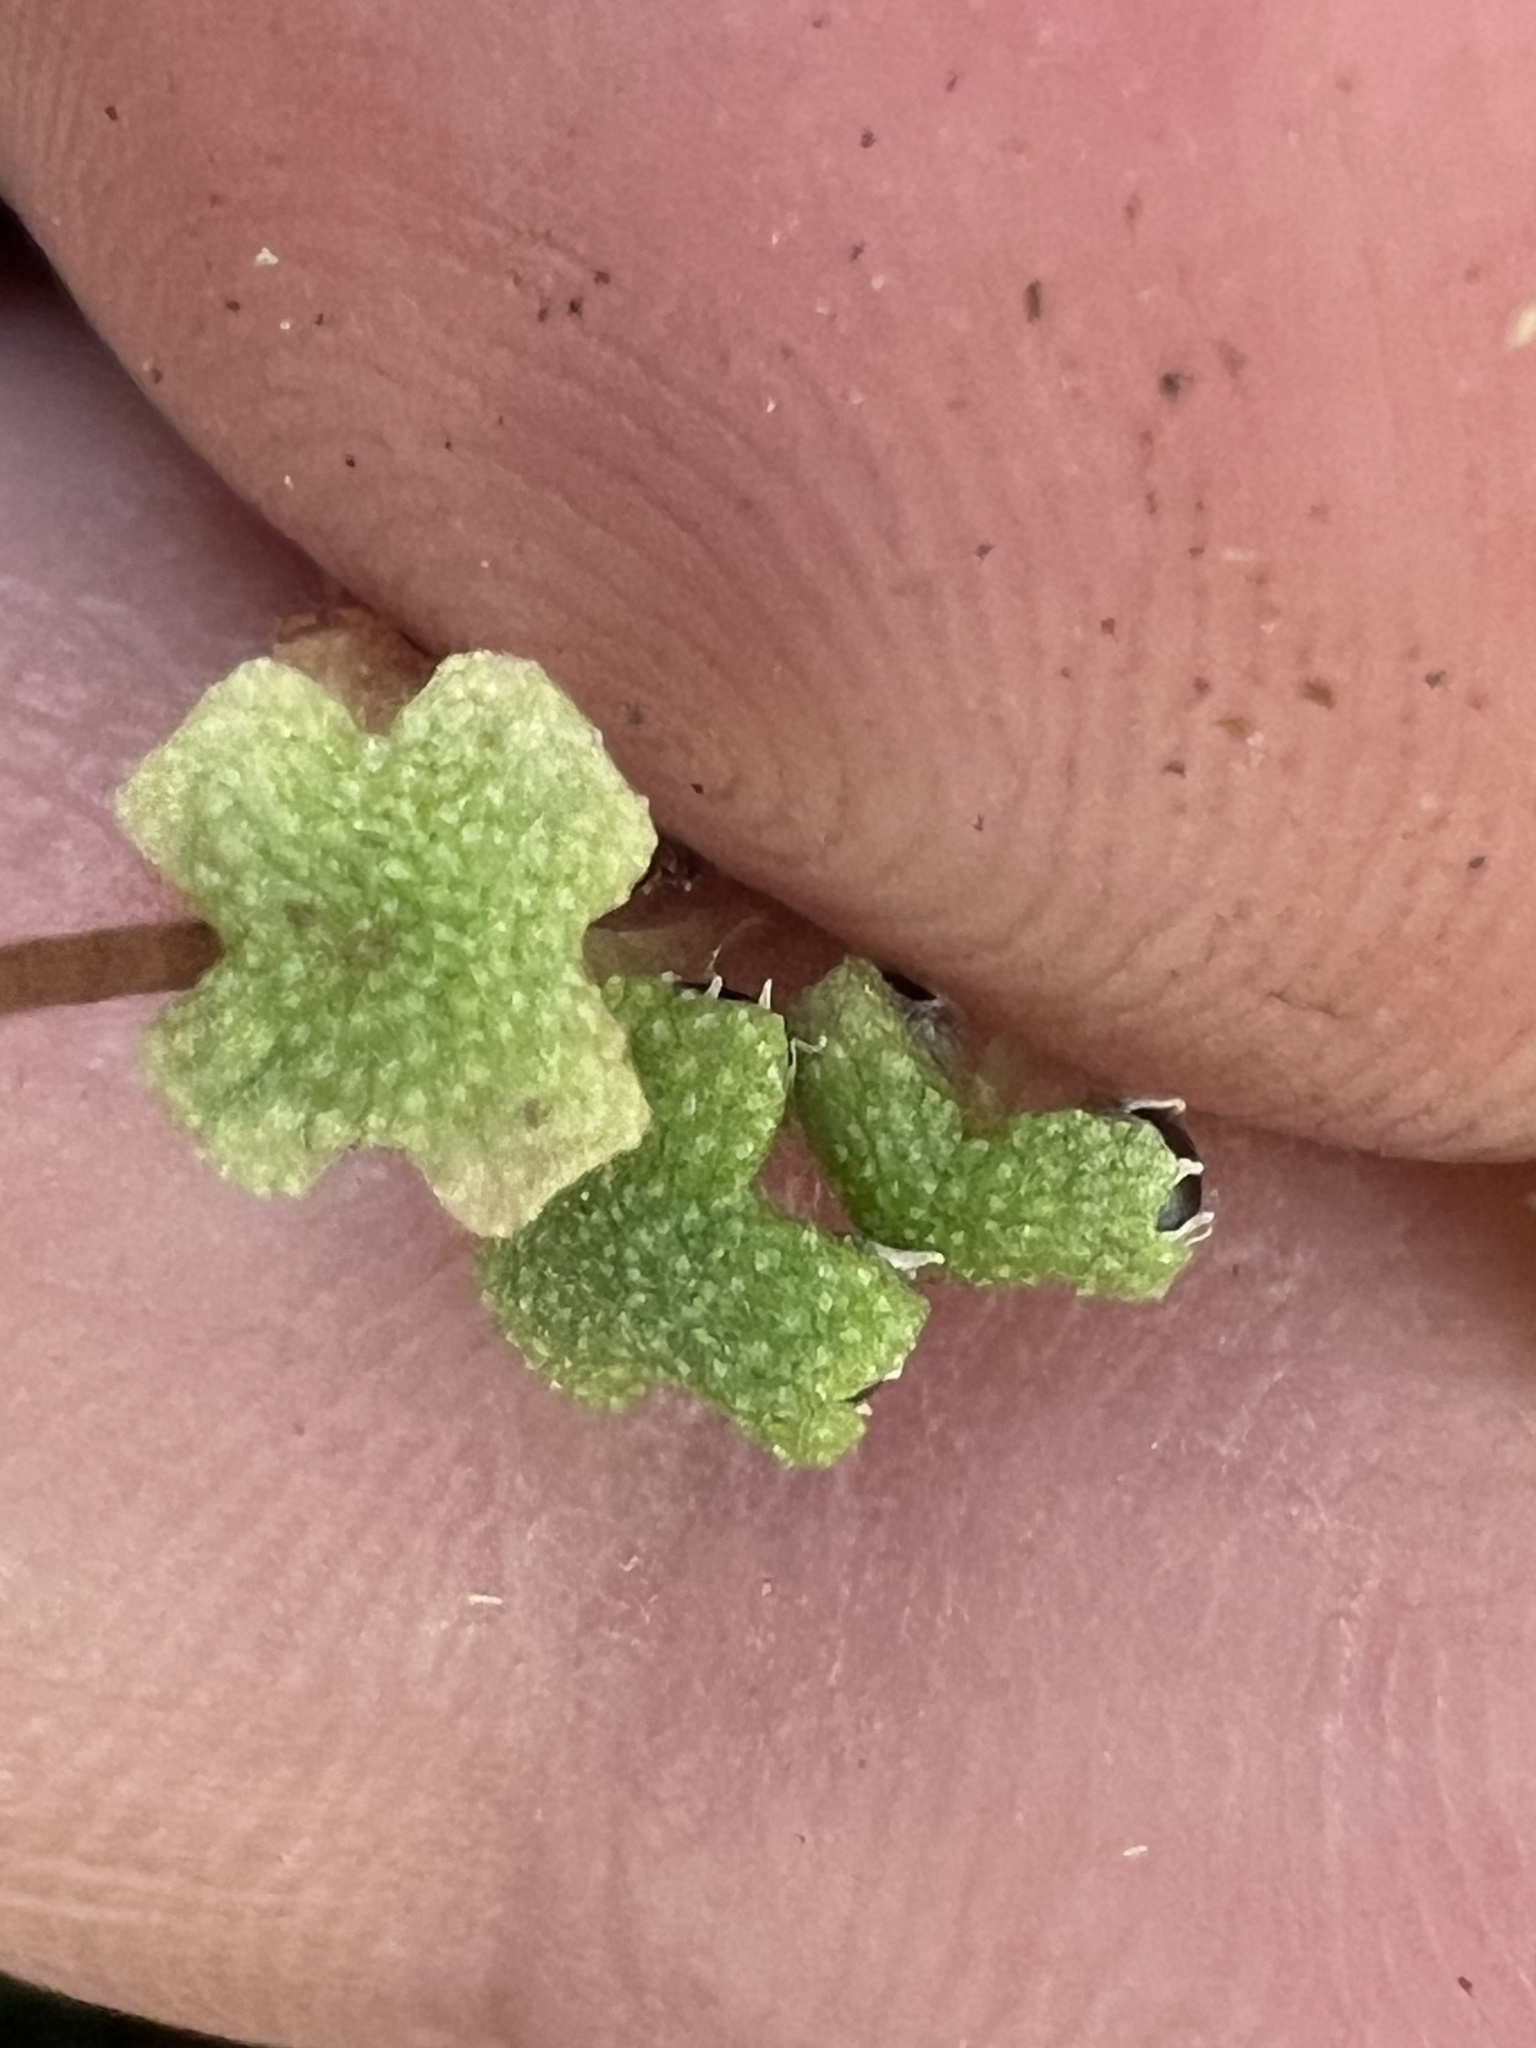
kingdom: Plantae
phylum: Marchantiophyta
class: Marchantiopsida
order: Marchantiales
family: Aytoniaceae
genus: Asterella
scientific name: Asterella australis
